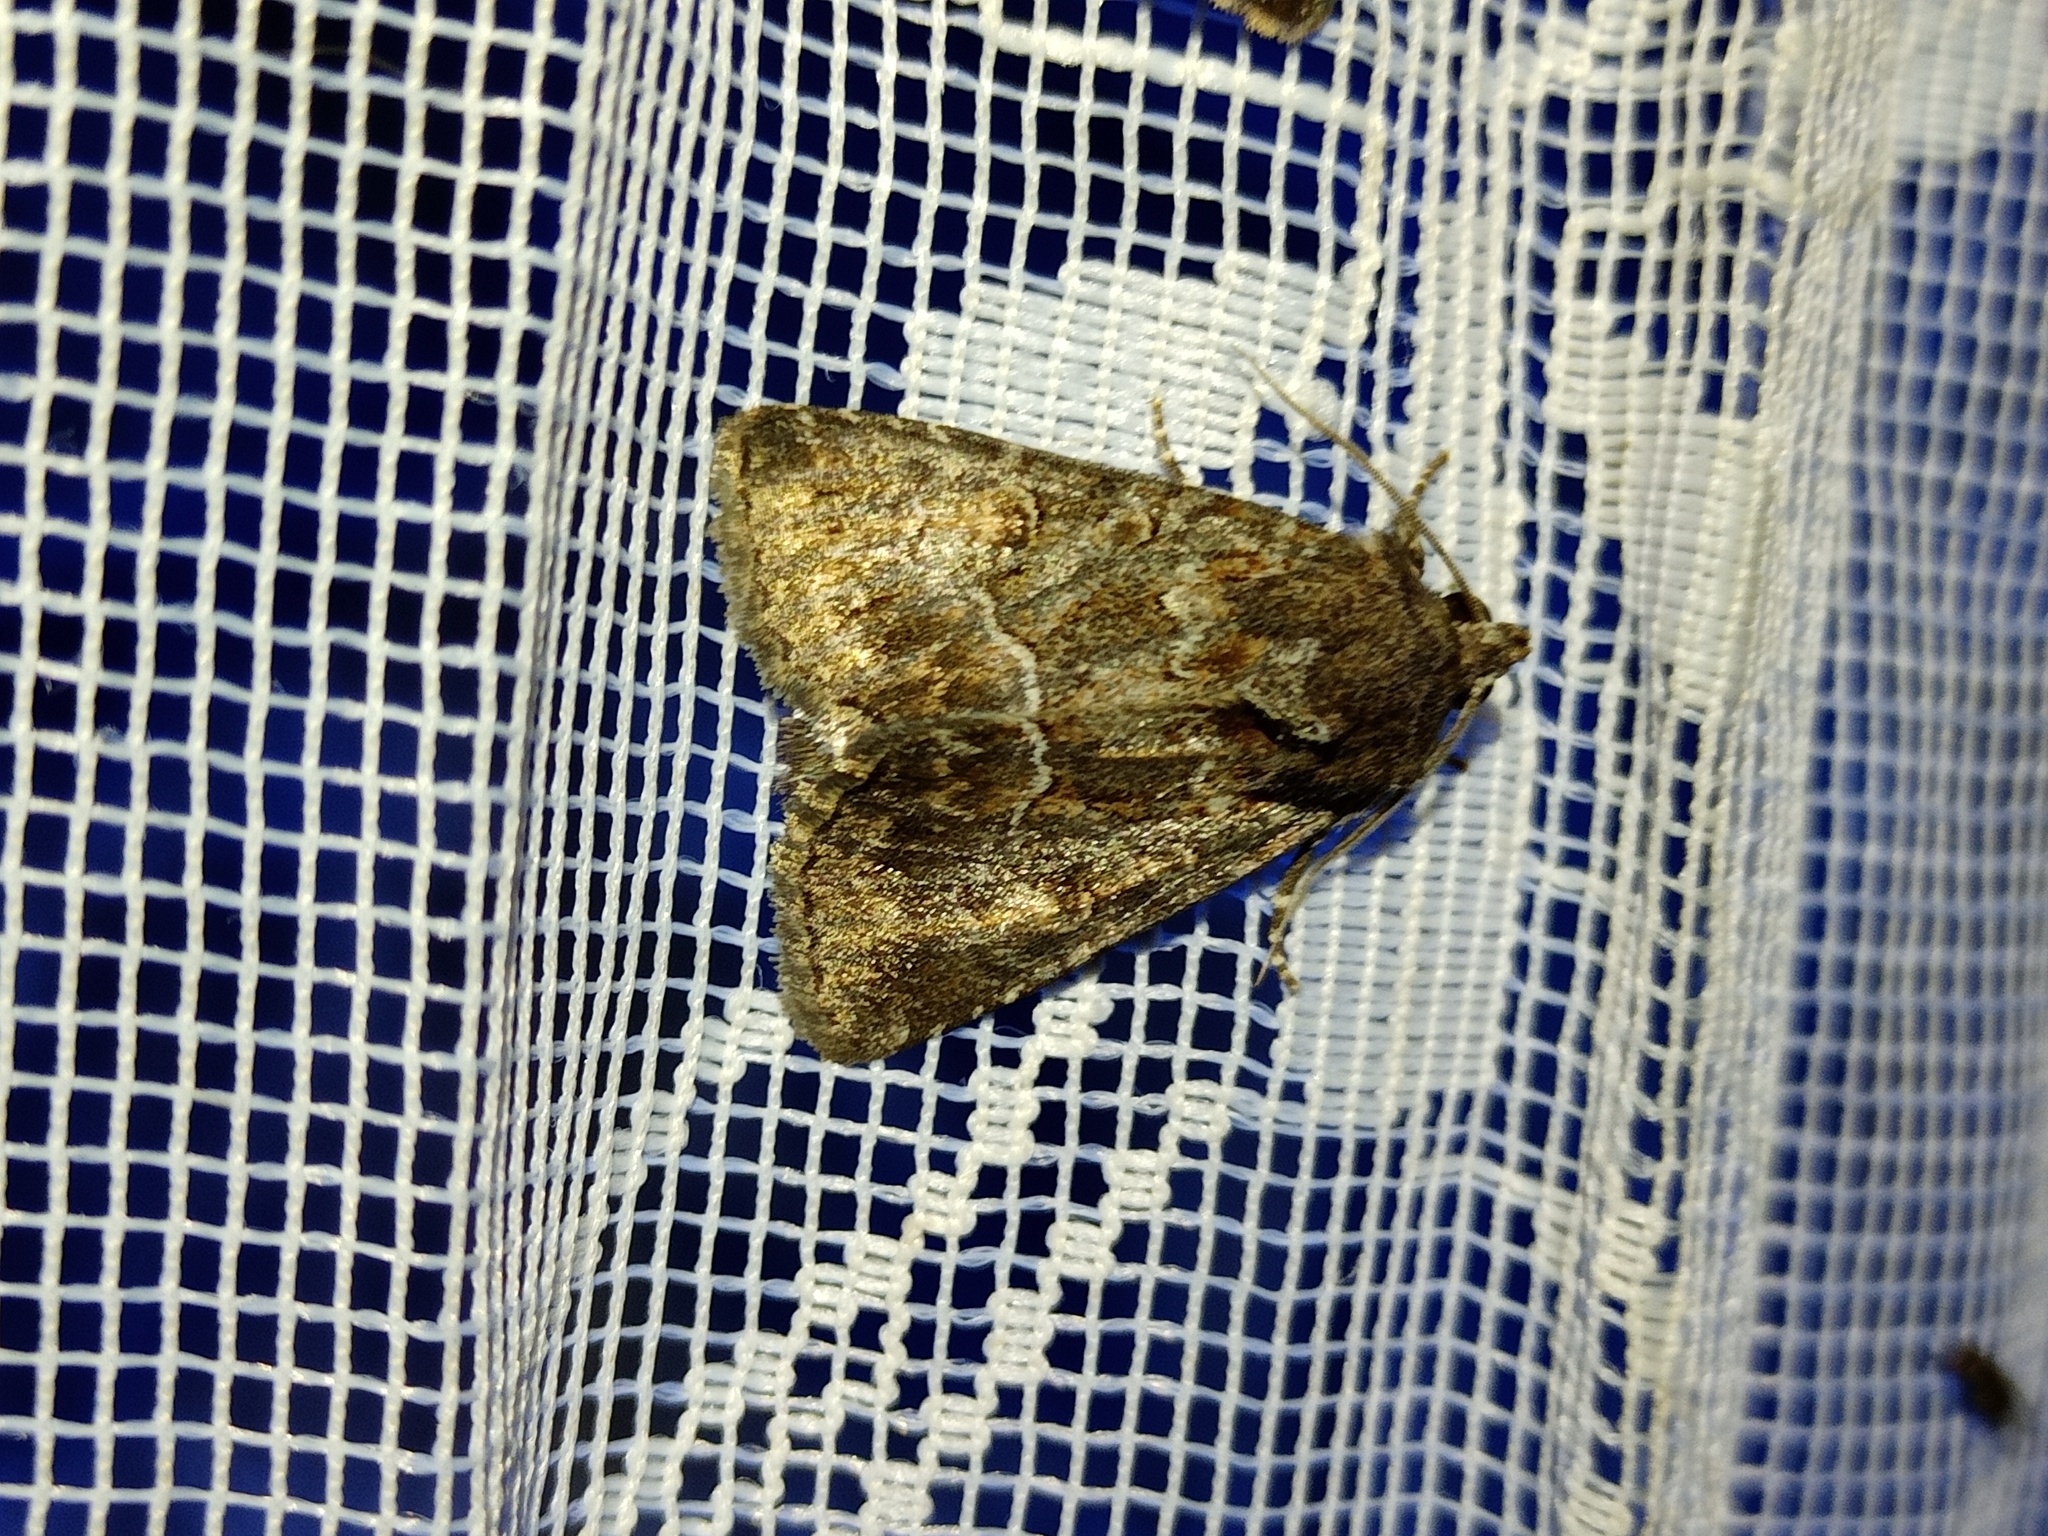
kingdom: Animalia
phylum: Arthropoda
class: Insecta
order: Lepidoptera
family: Noctuidae
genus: Thalpophila
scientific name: Thalpophila matura
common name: Straw underwing
